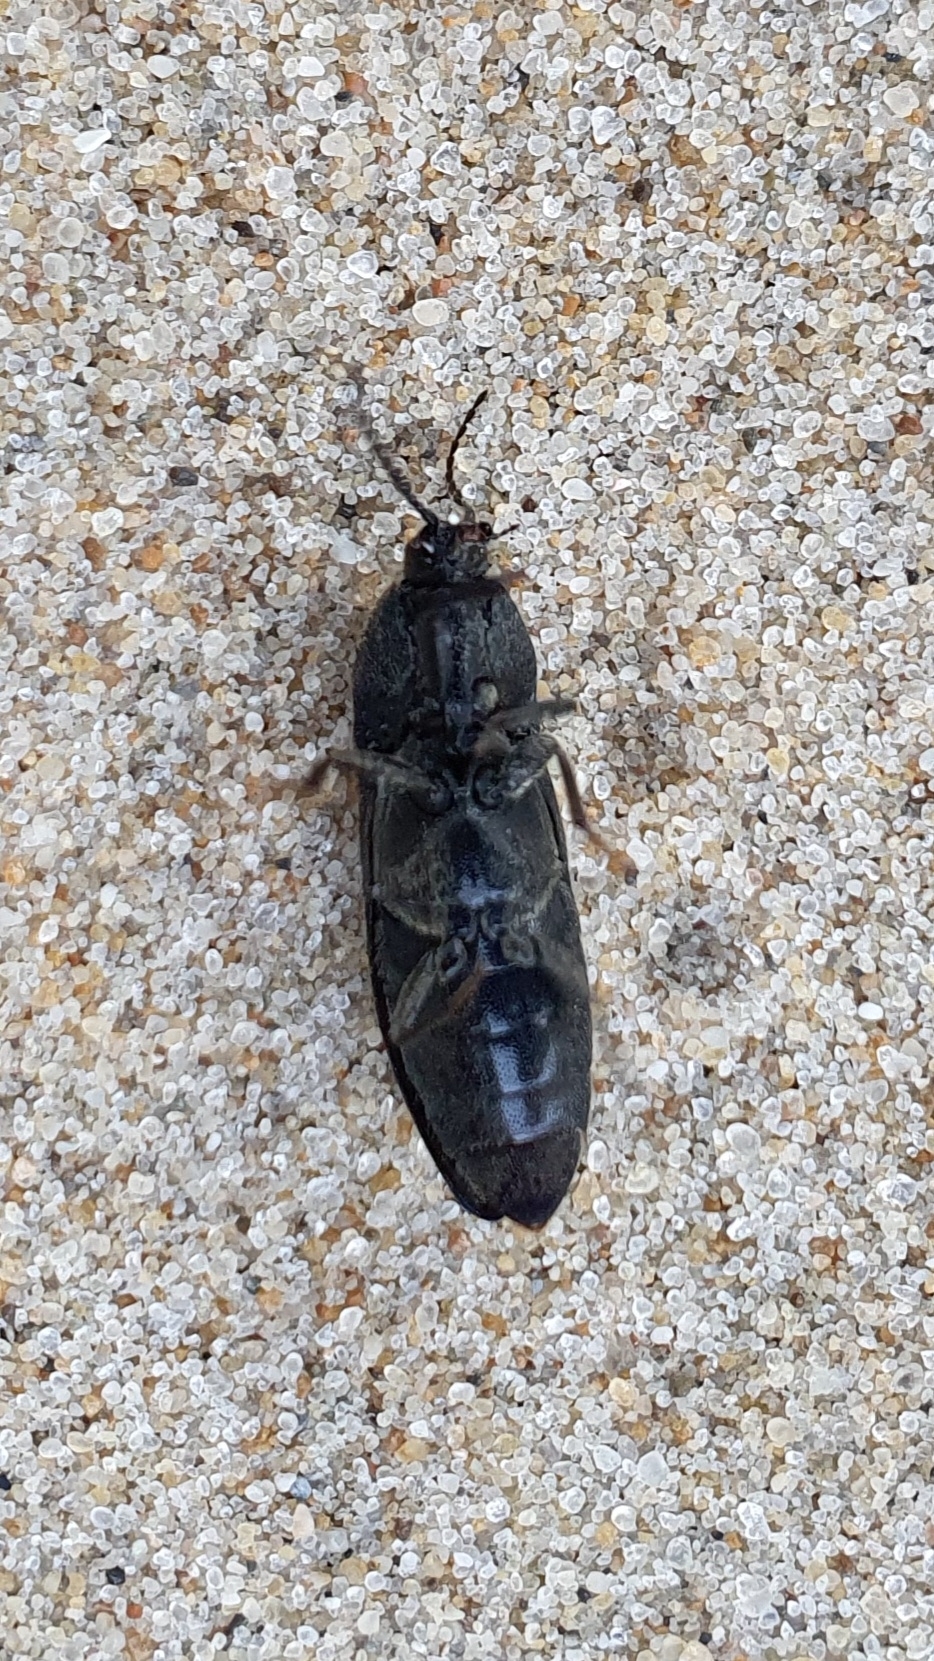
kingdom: Animalia
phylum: Arthropoda
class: Insecta
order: Coleoptera
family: Elateridae
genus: Melanotus
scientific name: Melanotus punctolineatus
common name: Sandwich click beetle
